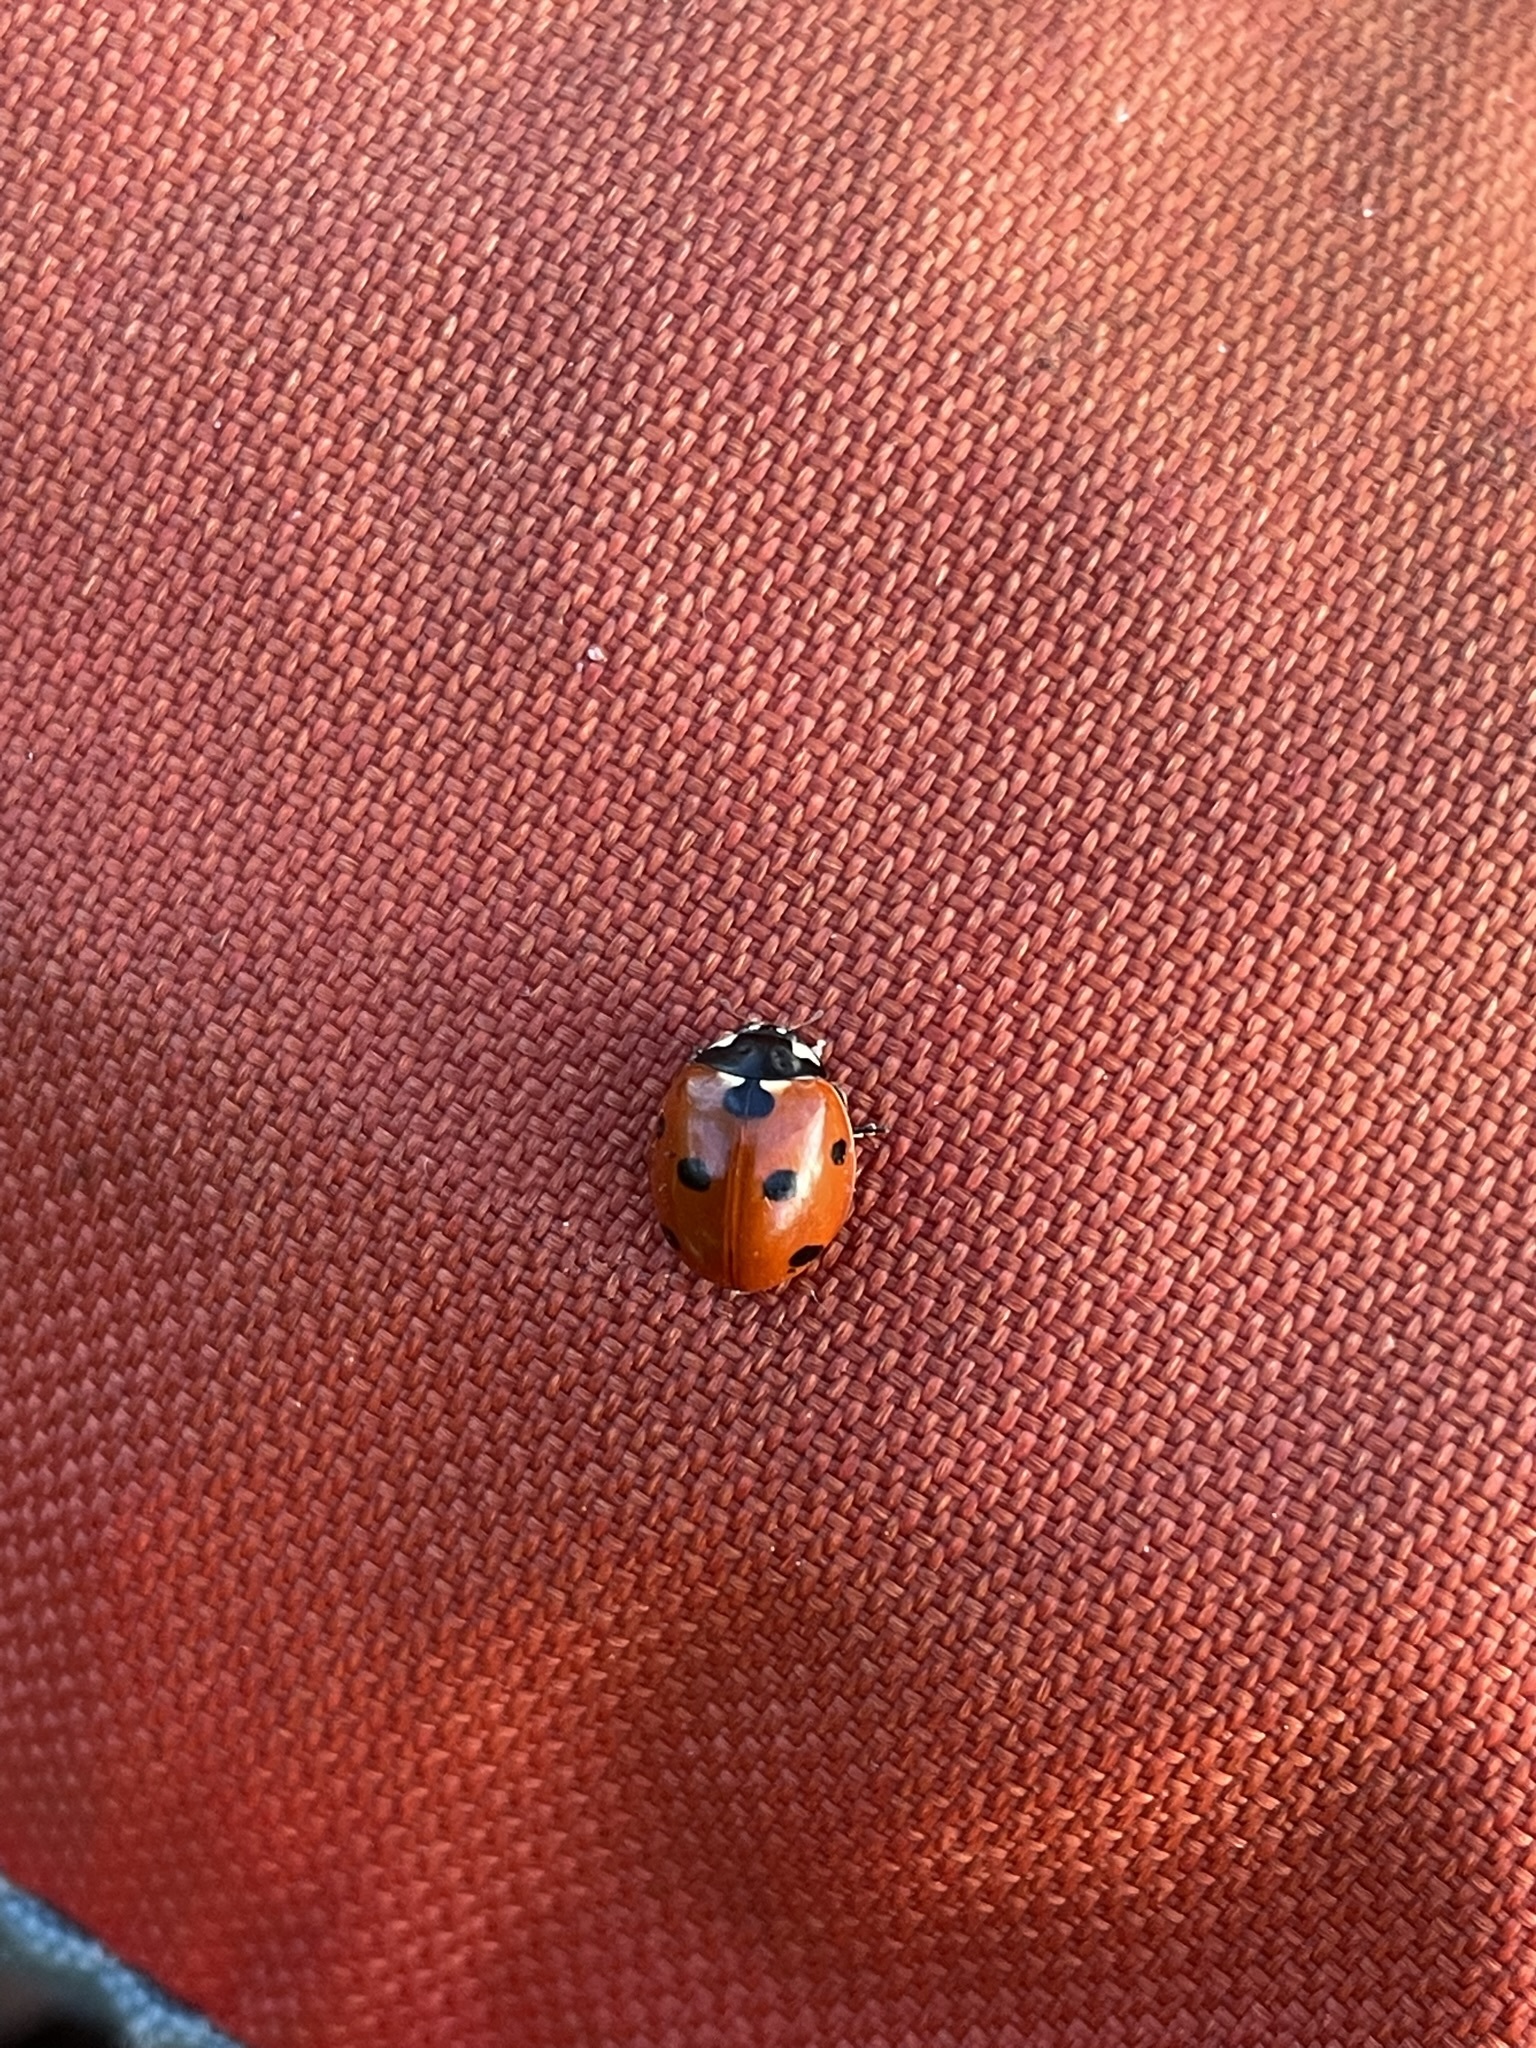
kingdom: Animalia
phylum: Arthropoda
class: Insecta
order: Coleoptera
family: Coccinellidae
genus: Coccinella
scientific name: Coccinella septempunctata
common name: Sevenspotted lady beetle
